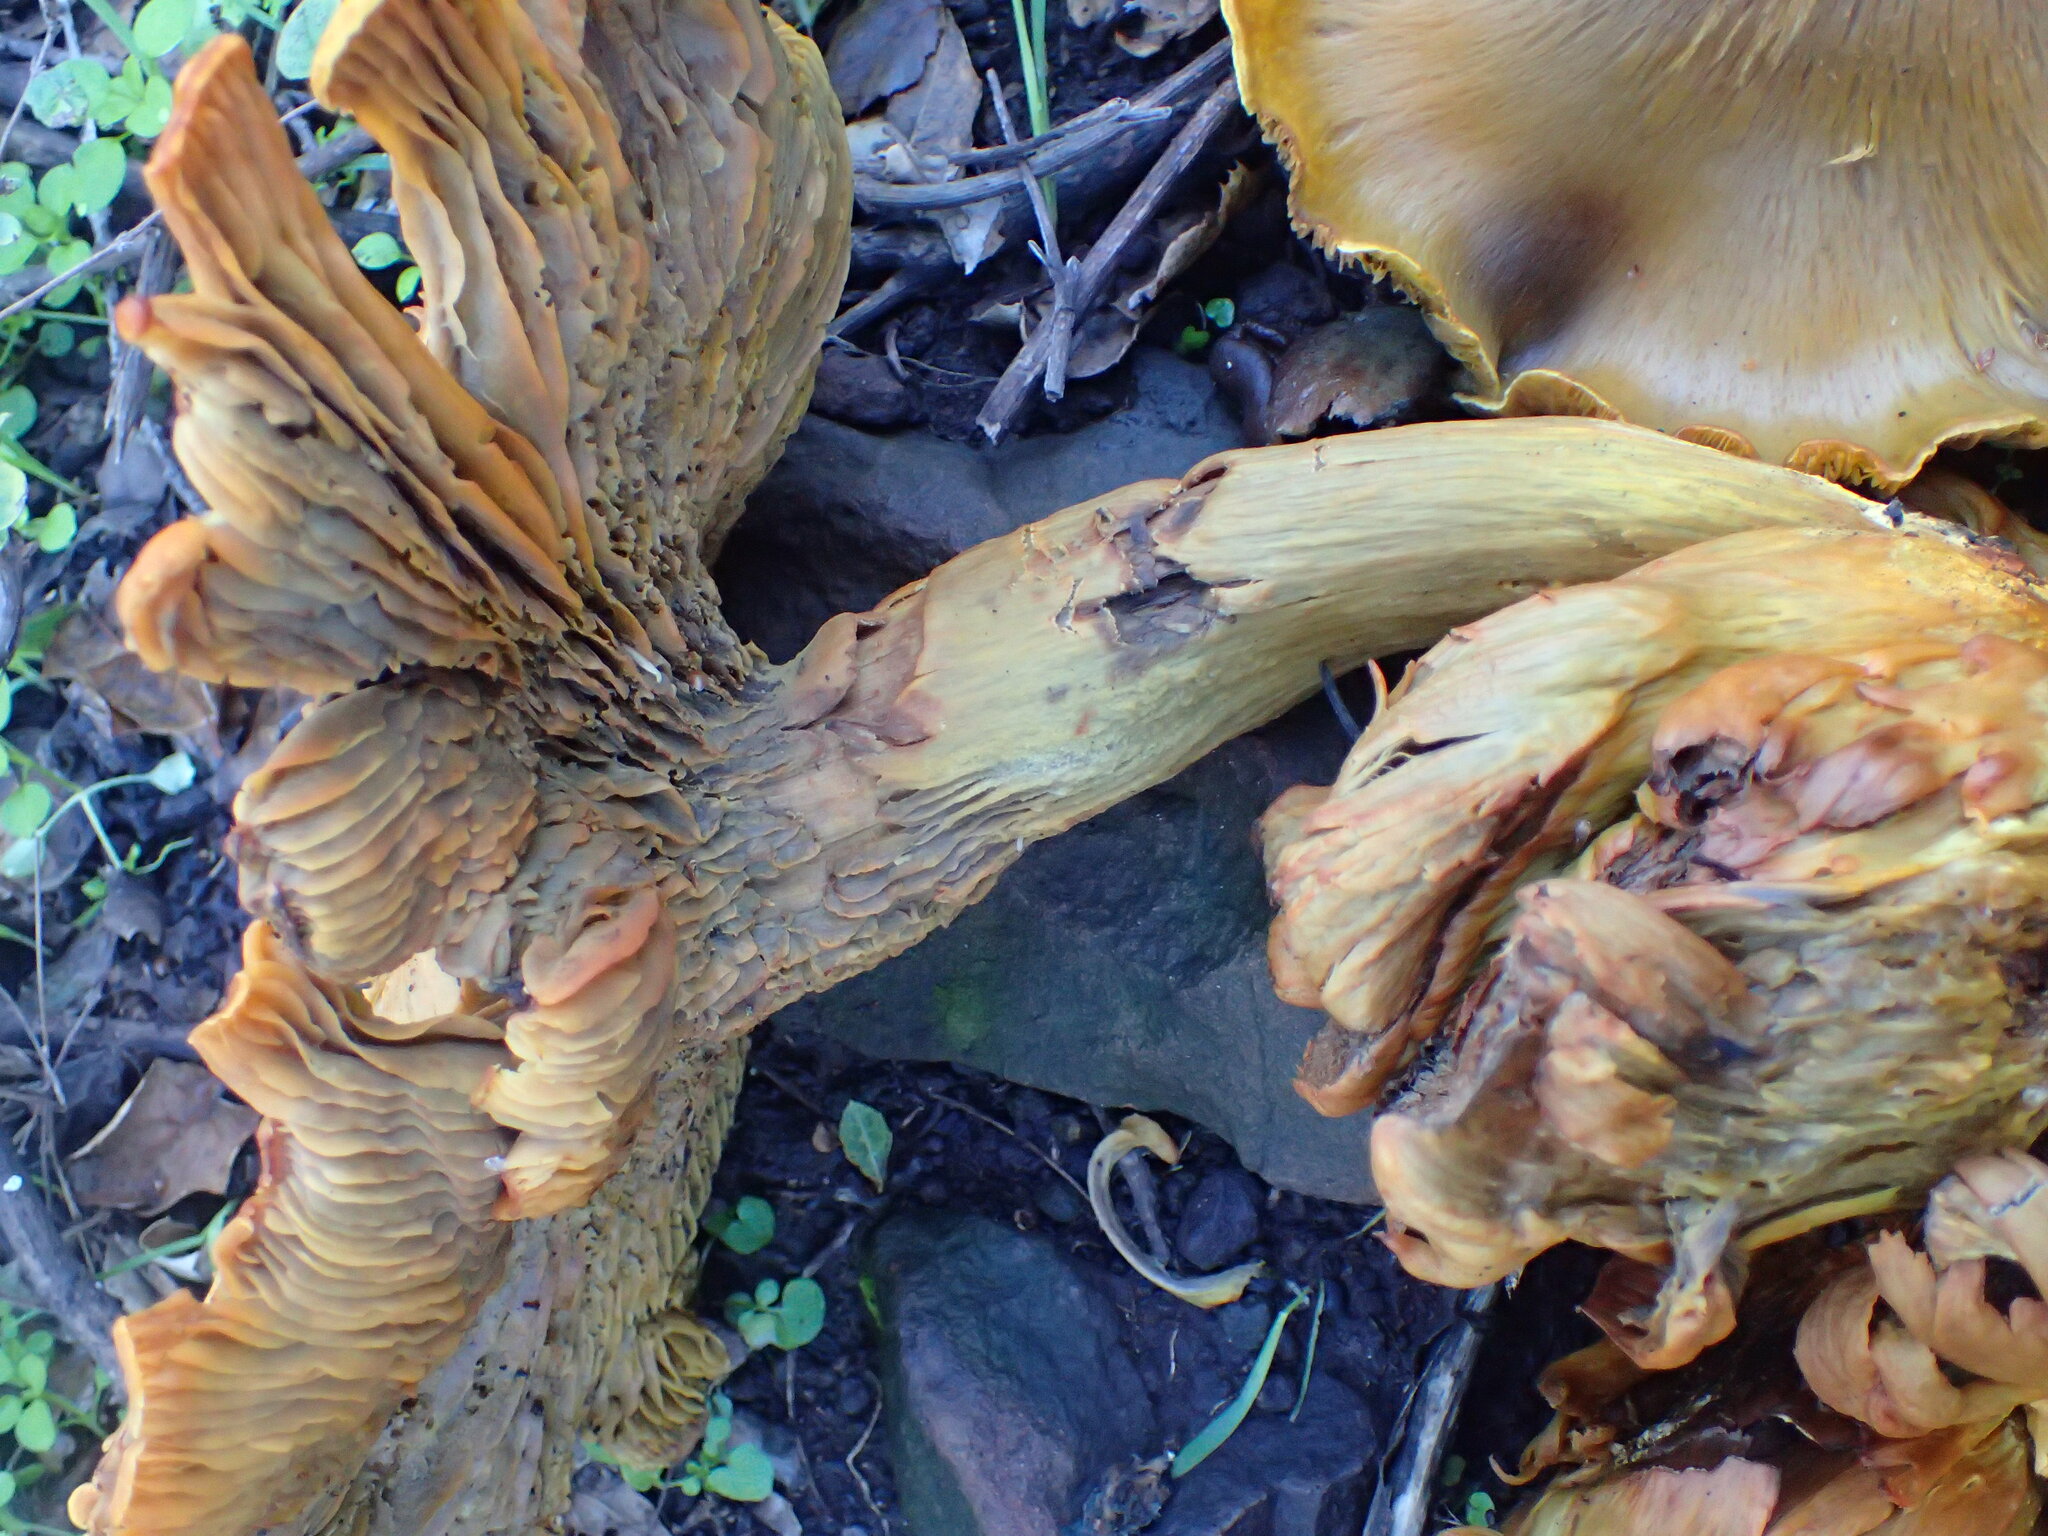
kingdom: Fungi
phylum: Basidiomycota
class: Agaricomycetes
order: Agaricales
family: Omphalotaceae
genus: Omphalotus
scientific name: Omphalotus olivascens
